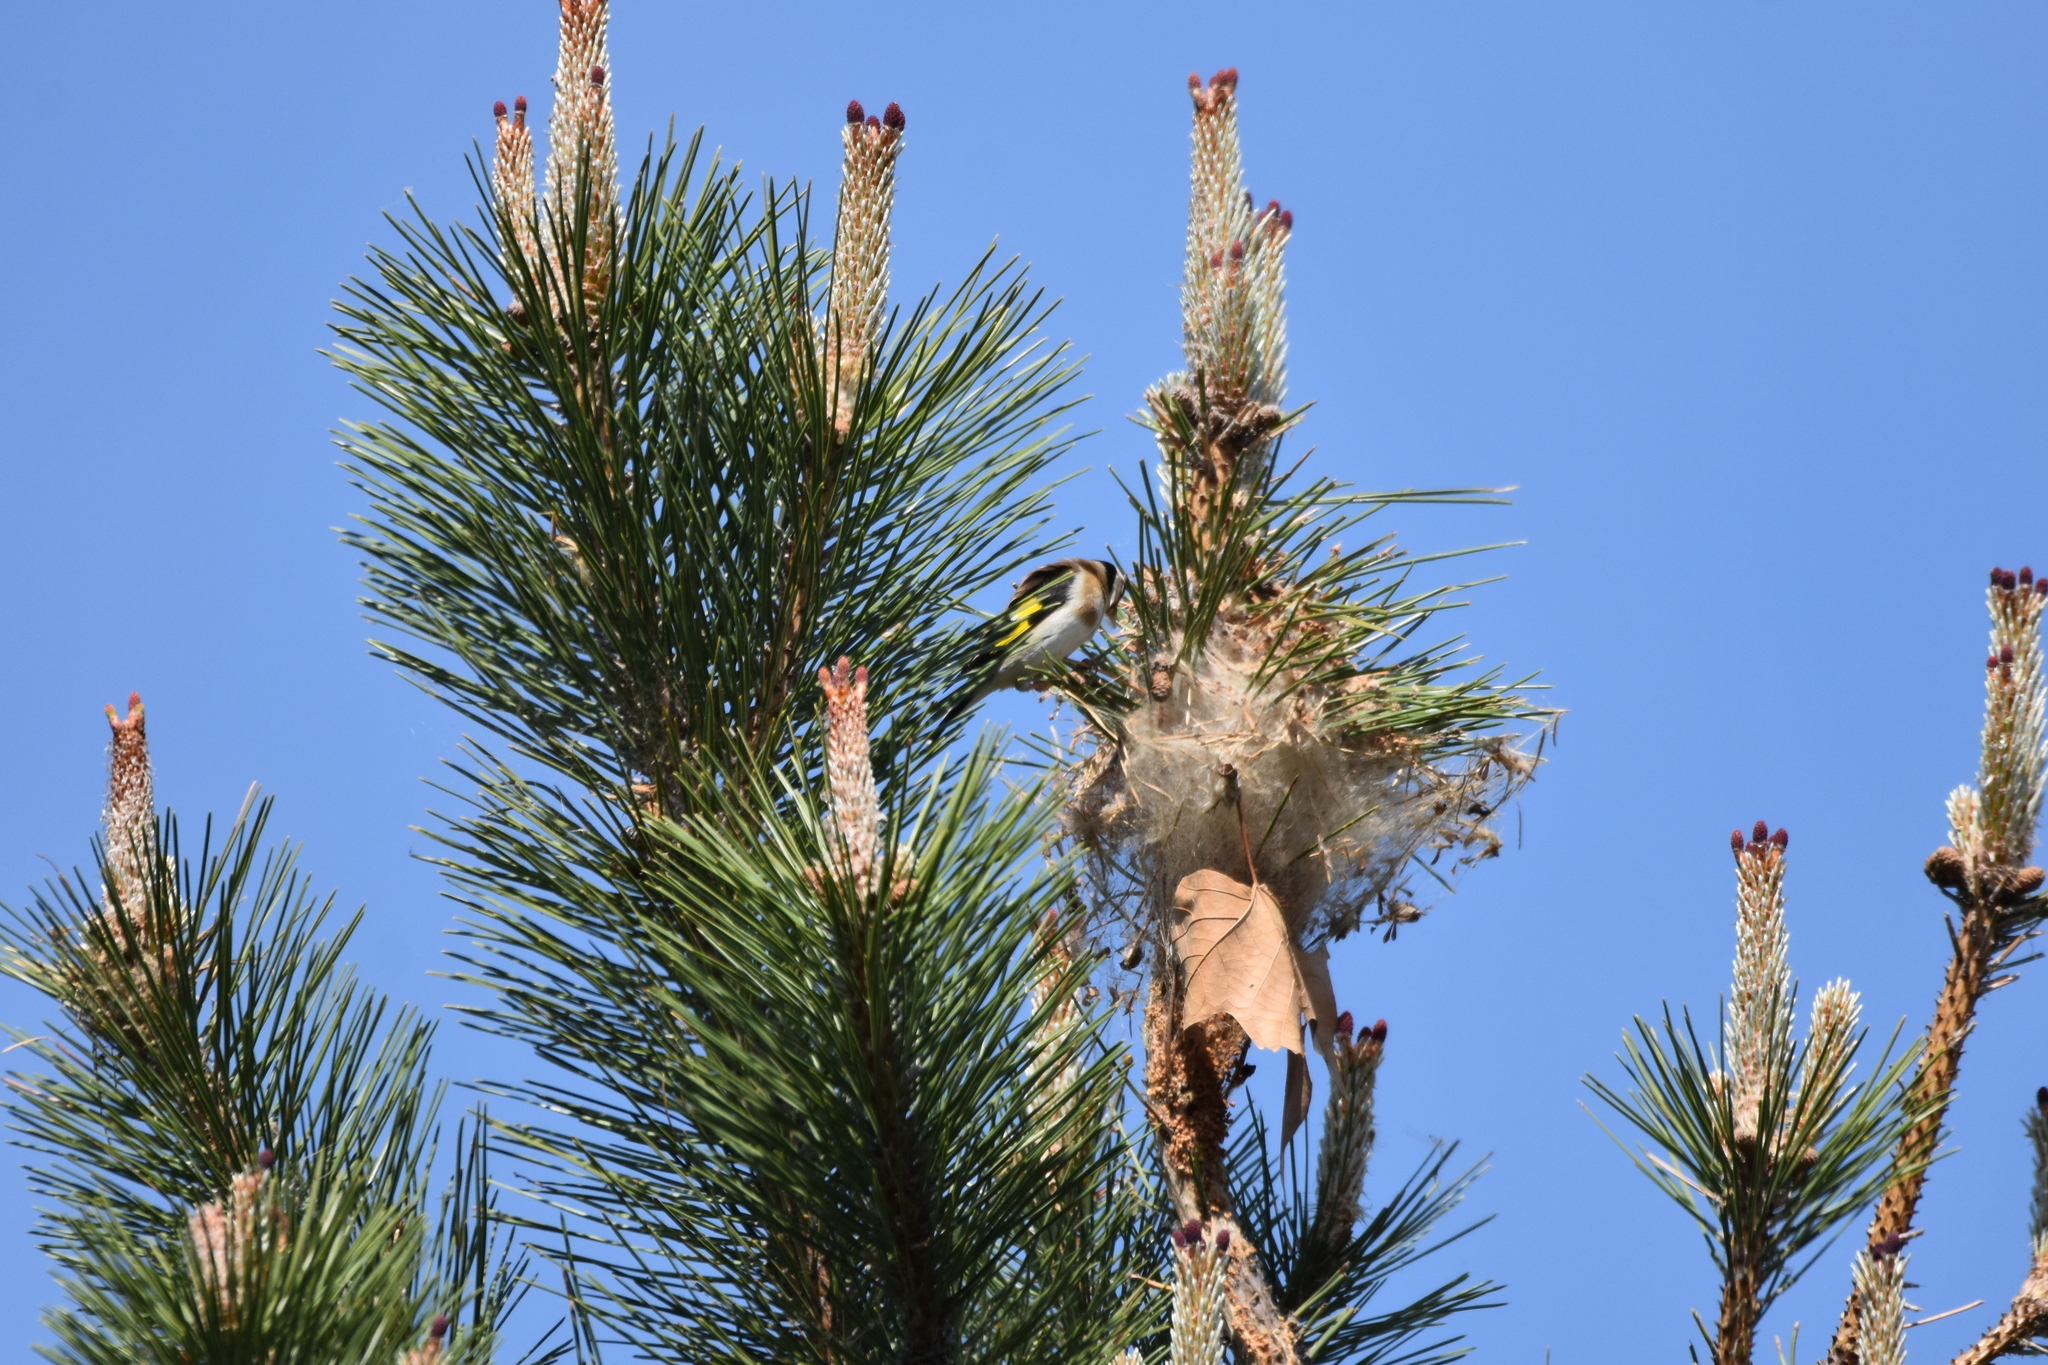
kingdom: Animalia
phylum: Chordata
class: Aves
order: Passeriformes
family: Fringillidae
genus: Carduelis
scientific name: Carduelis carduelis
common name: European goldfinch
